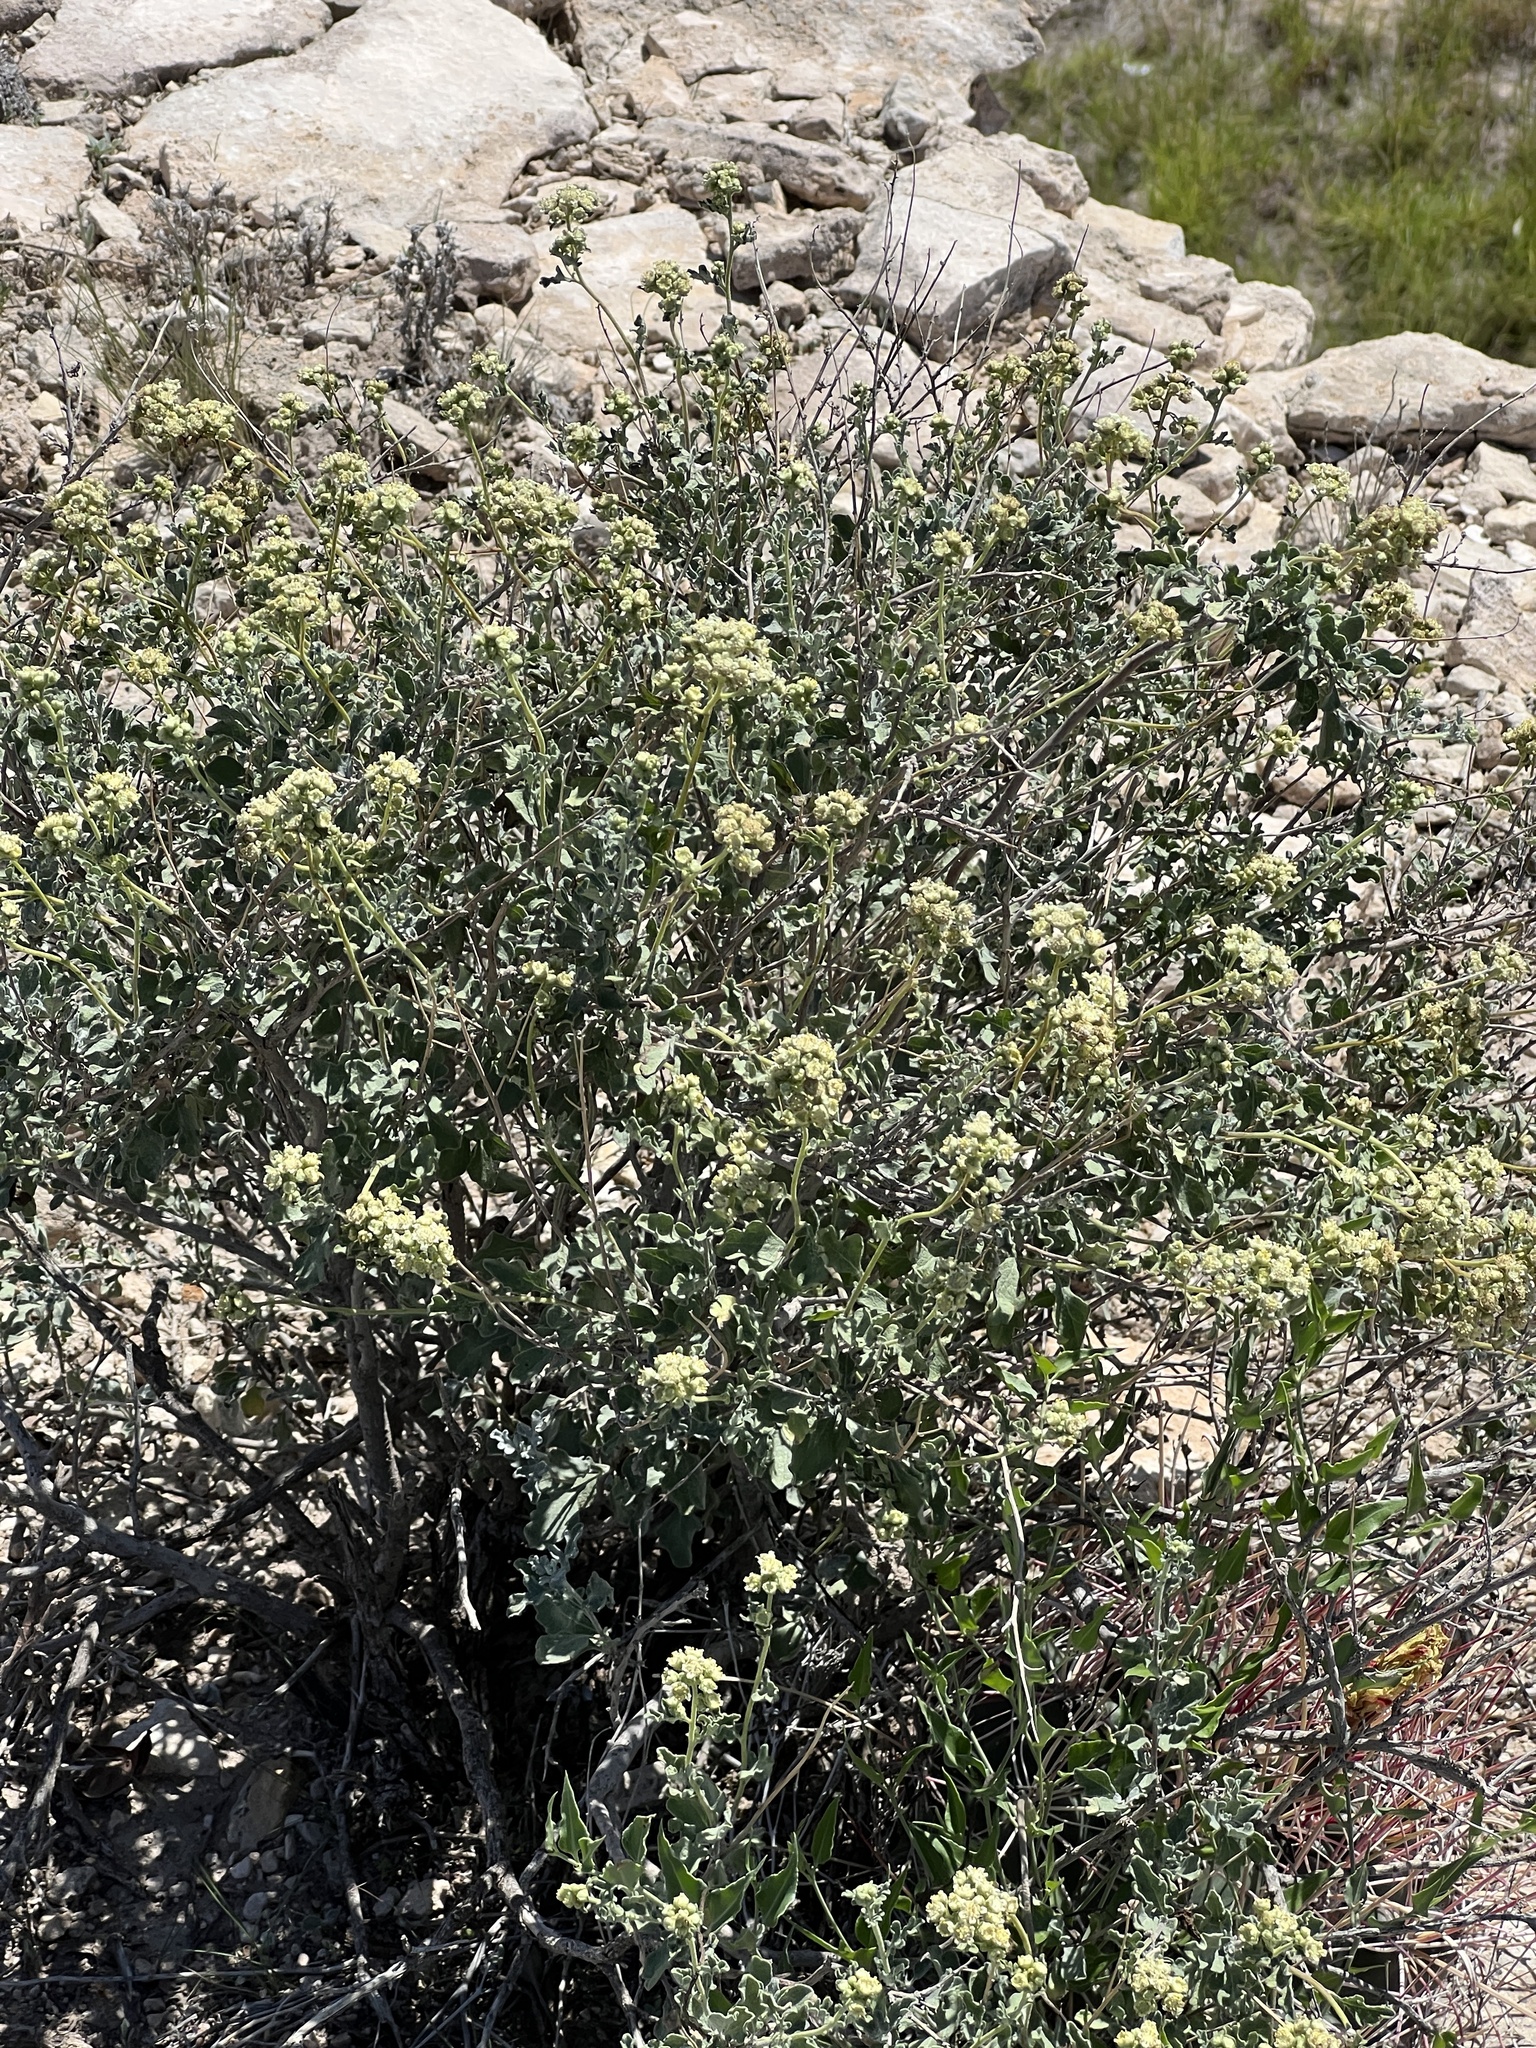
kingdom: Plantae
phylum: Tracheophyta
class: Magnoliopsida
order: Asterales
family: Asteraceae
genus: Parthenium
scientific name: Parthenium incanum
